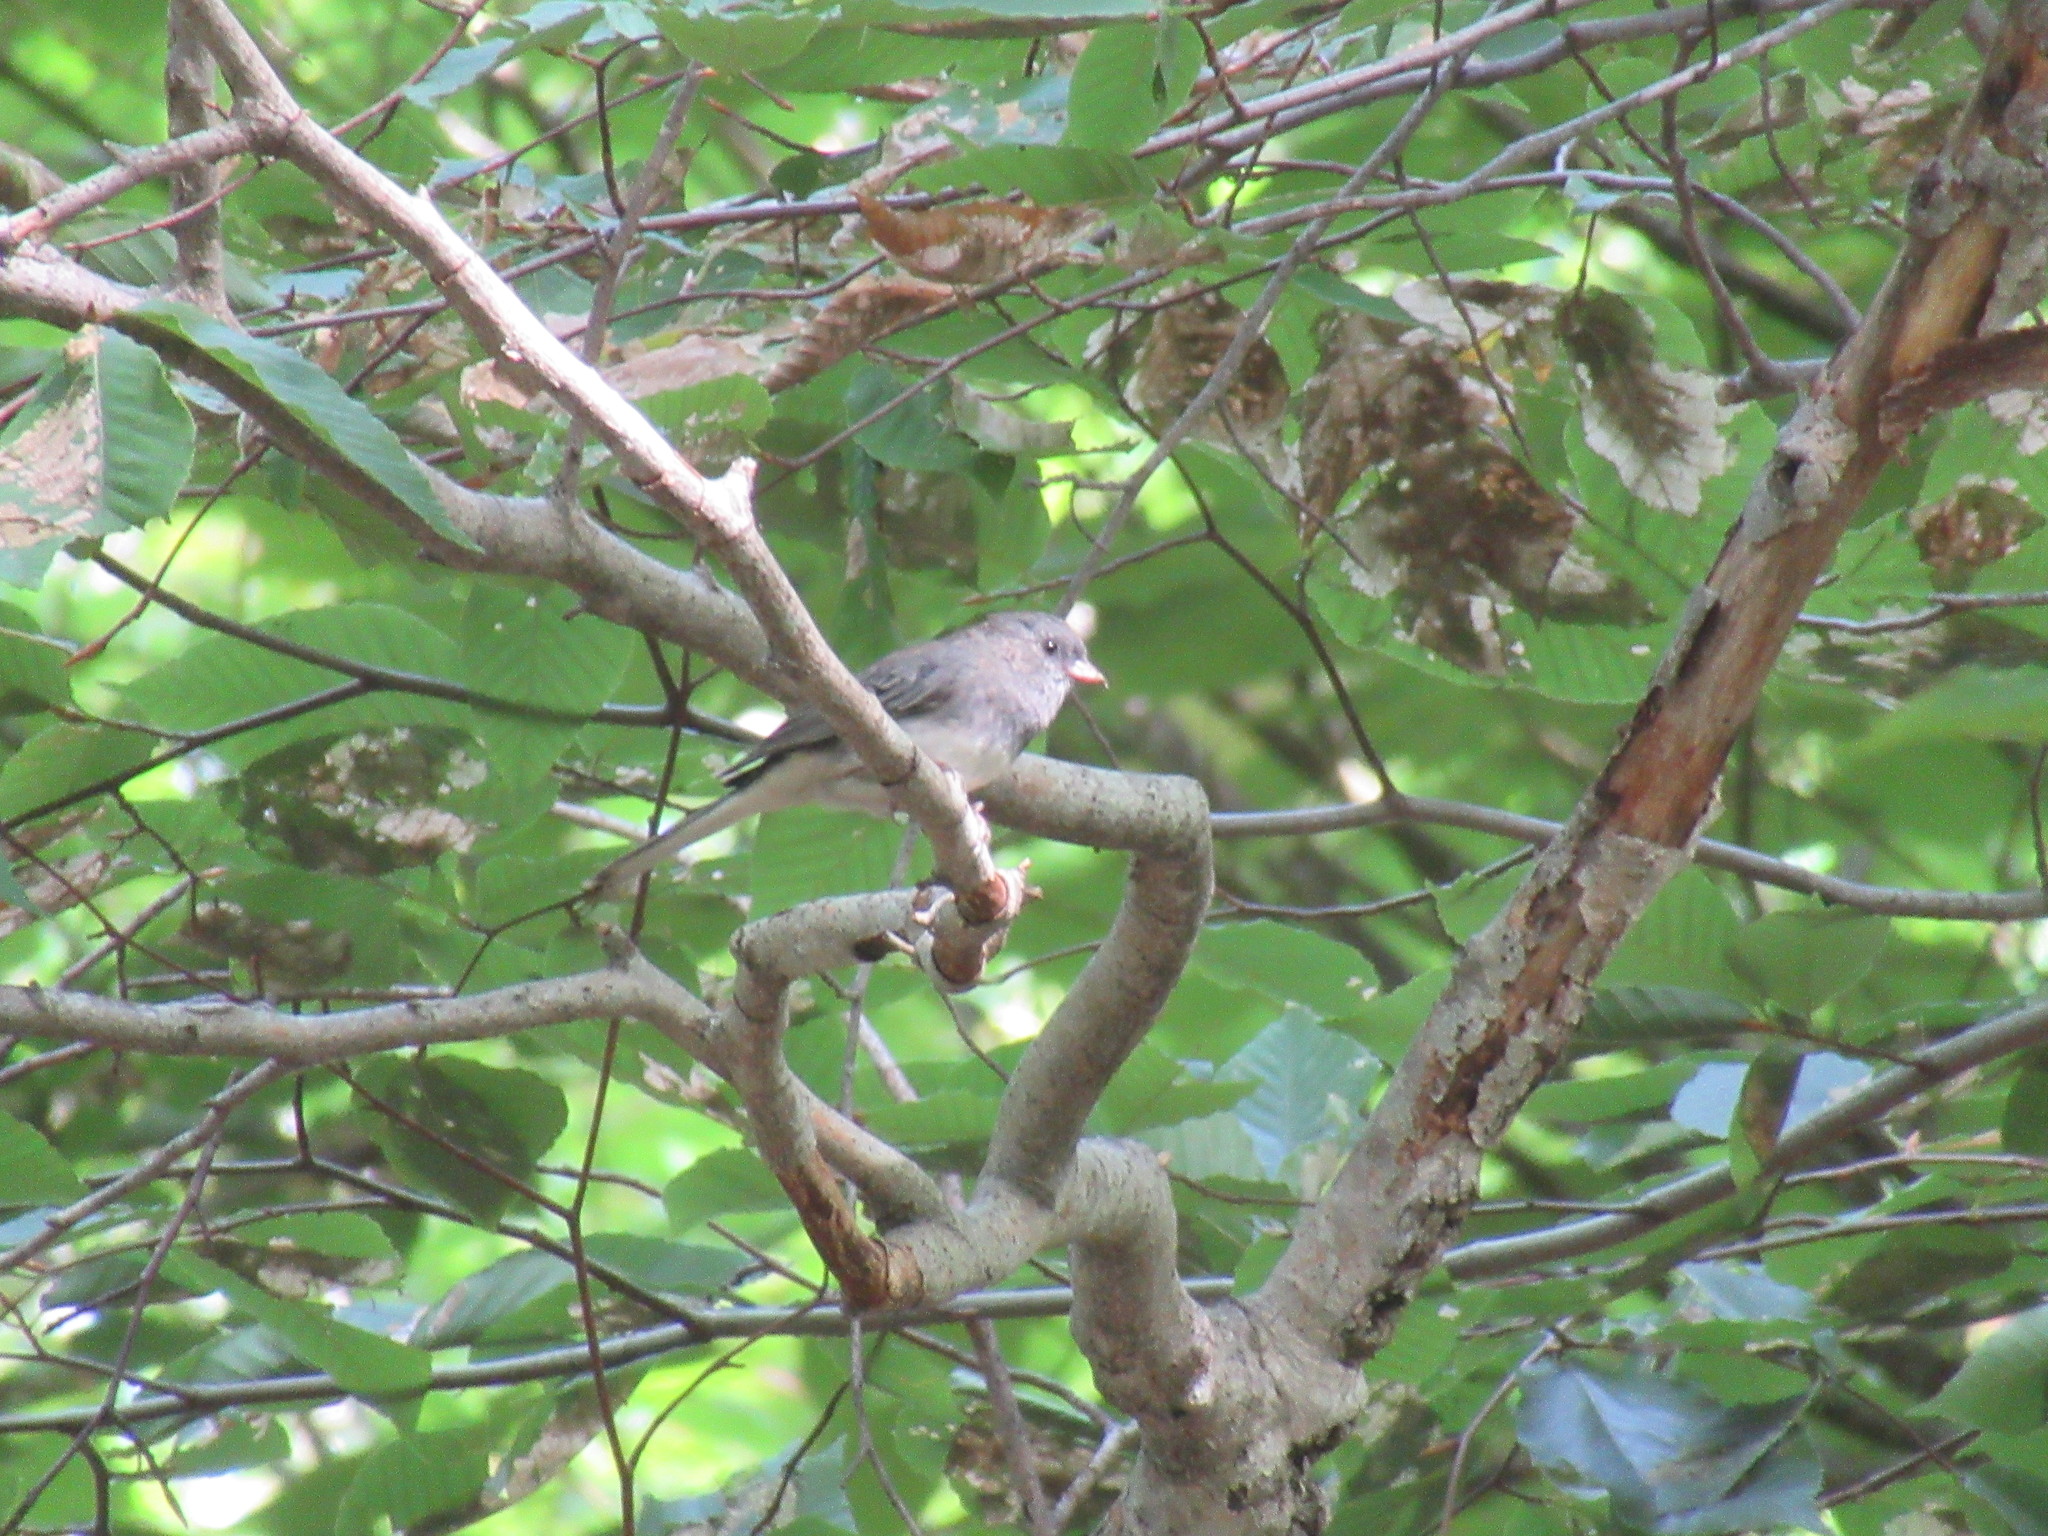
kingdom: Animalia
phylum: Chordata
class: Aves
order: Passeriformes
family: Passerellidae
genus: Junco
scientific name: Junco hyemalis
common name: Dark-eyed junco
